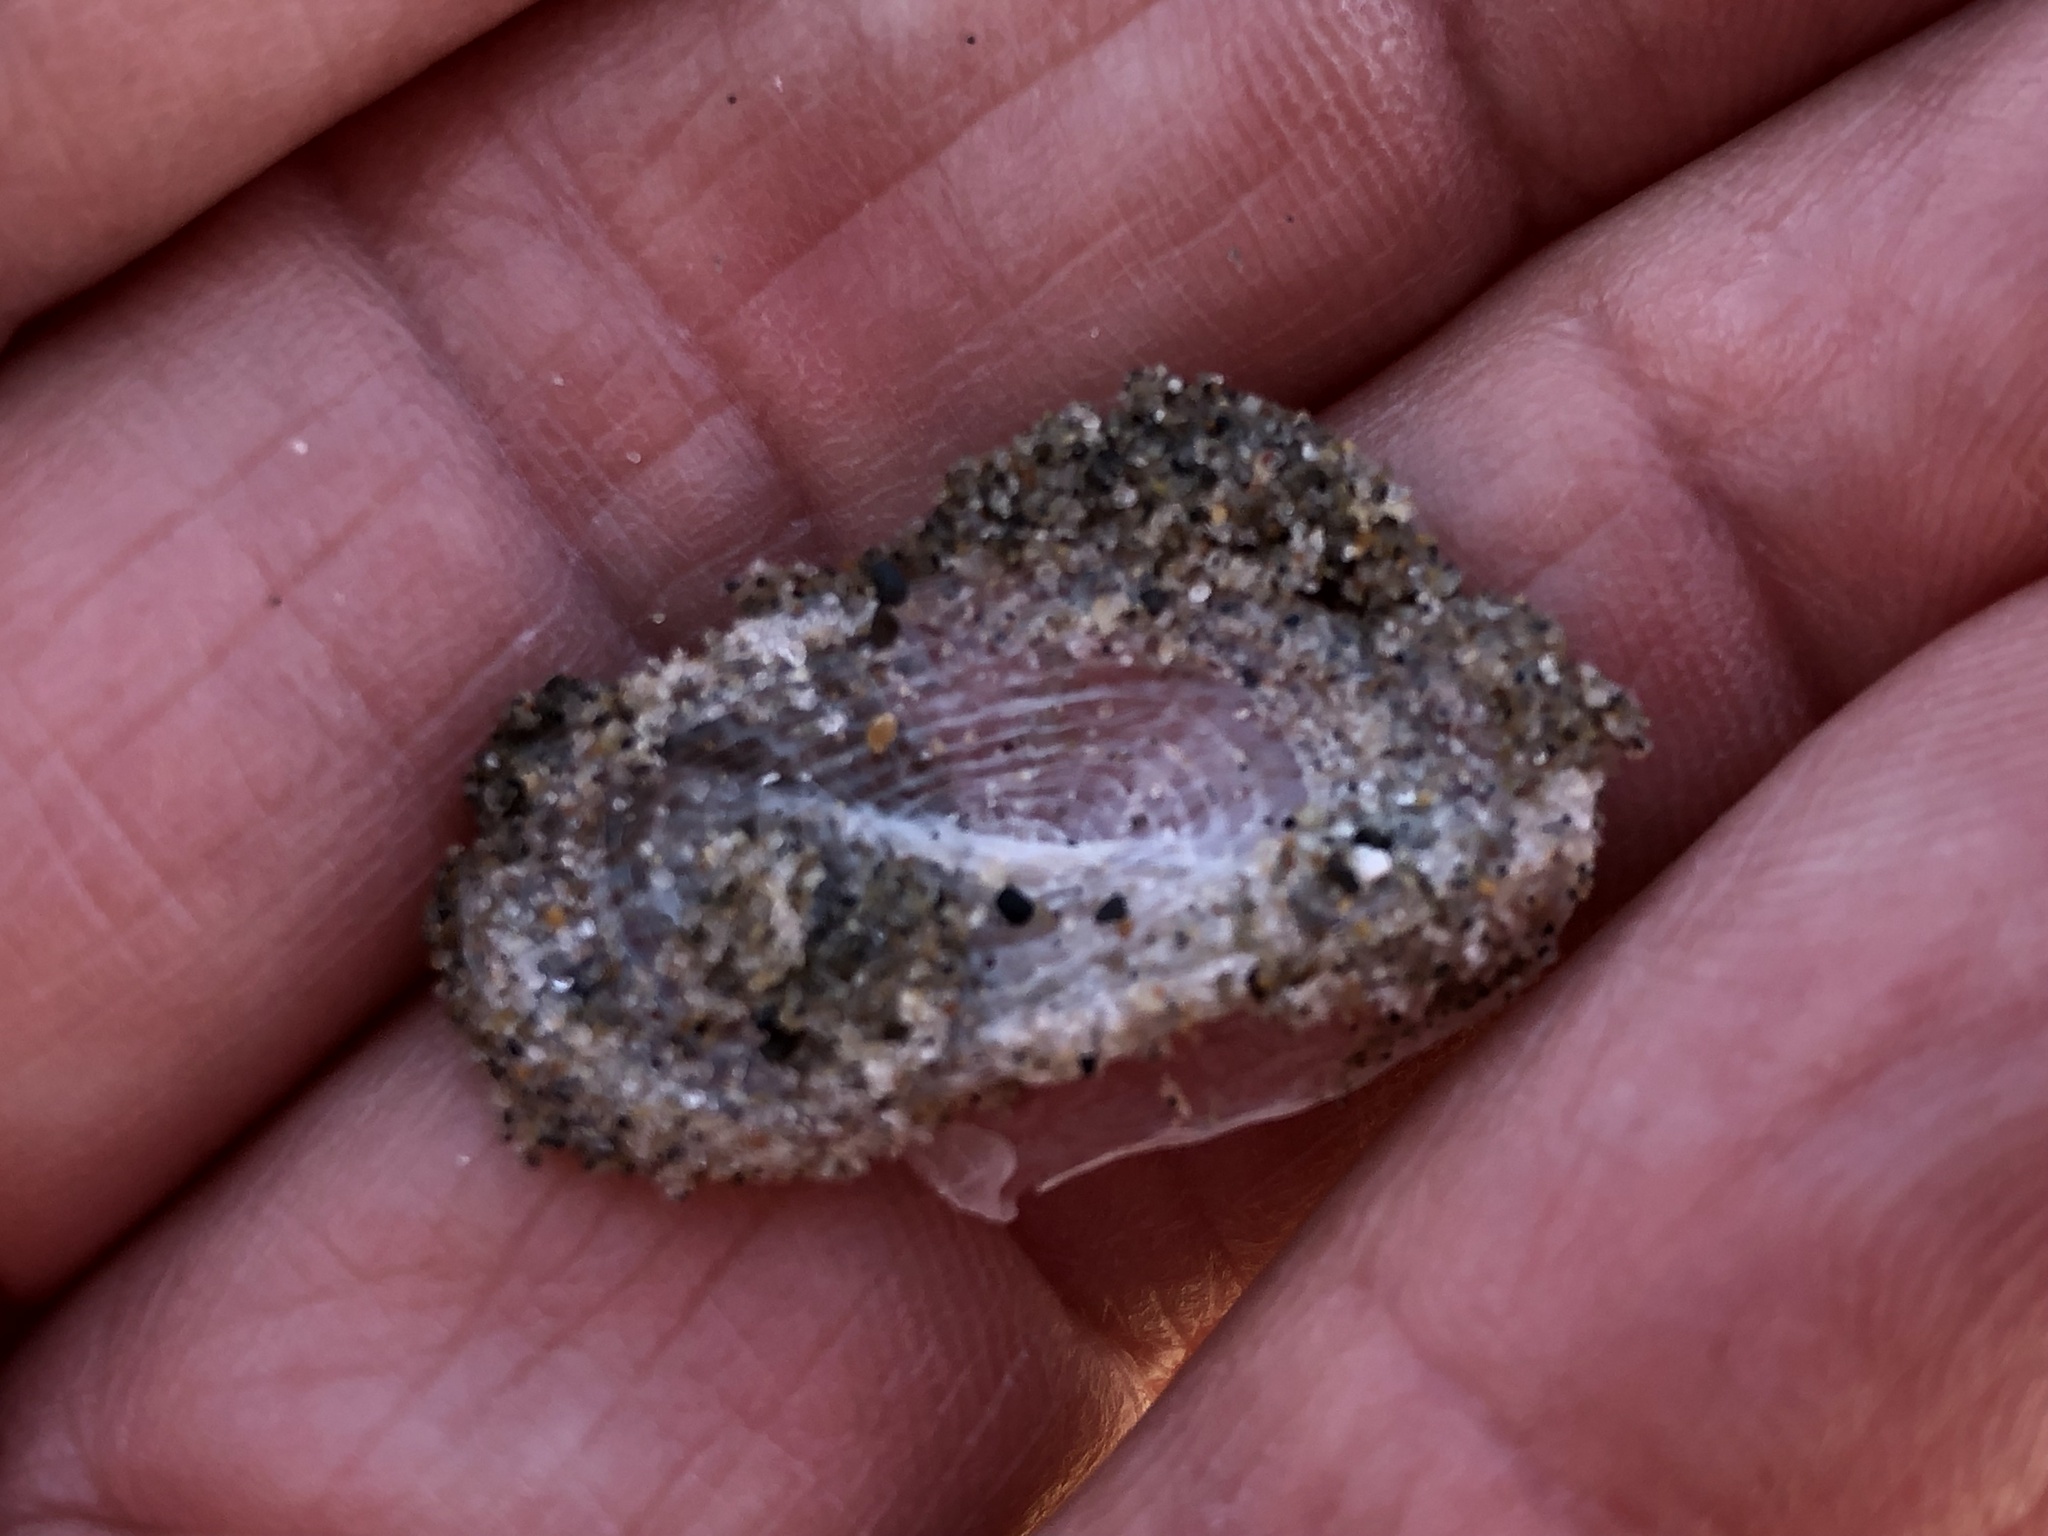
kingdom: Animalia
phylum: Cnidaria
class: Hydrozoa
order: Anthoathecata
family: Porpitidae
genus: Velella
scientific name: Velella velella
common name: By-the-wind-sailor
